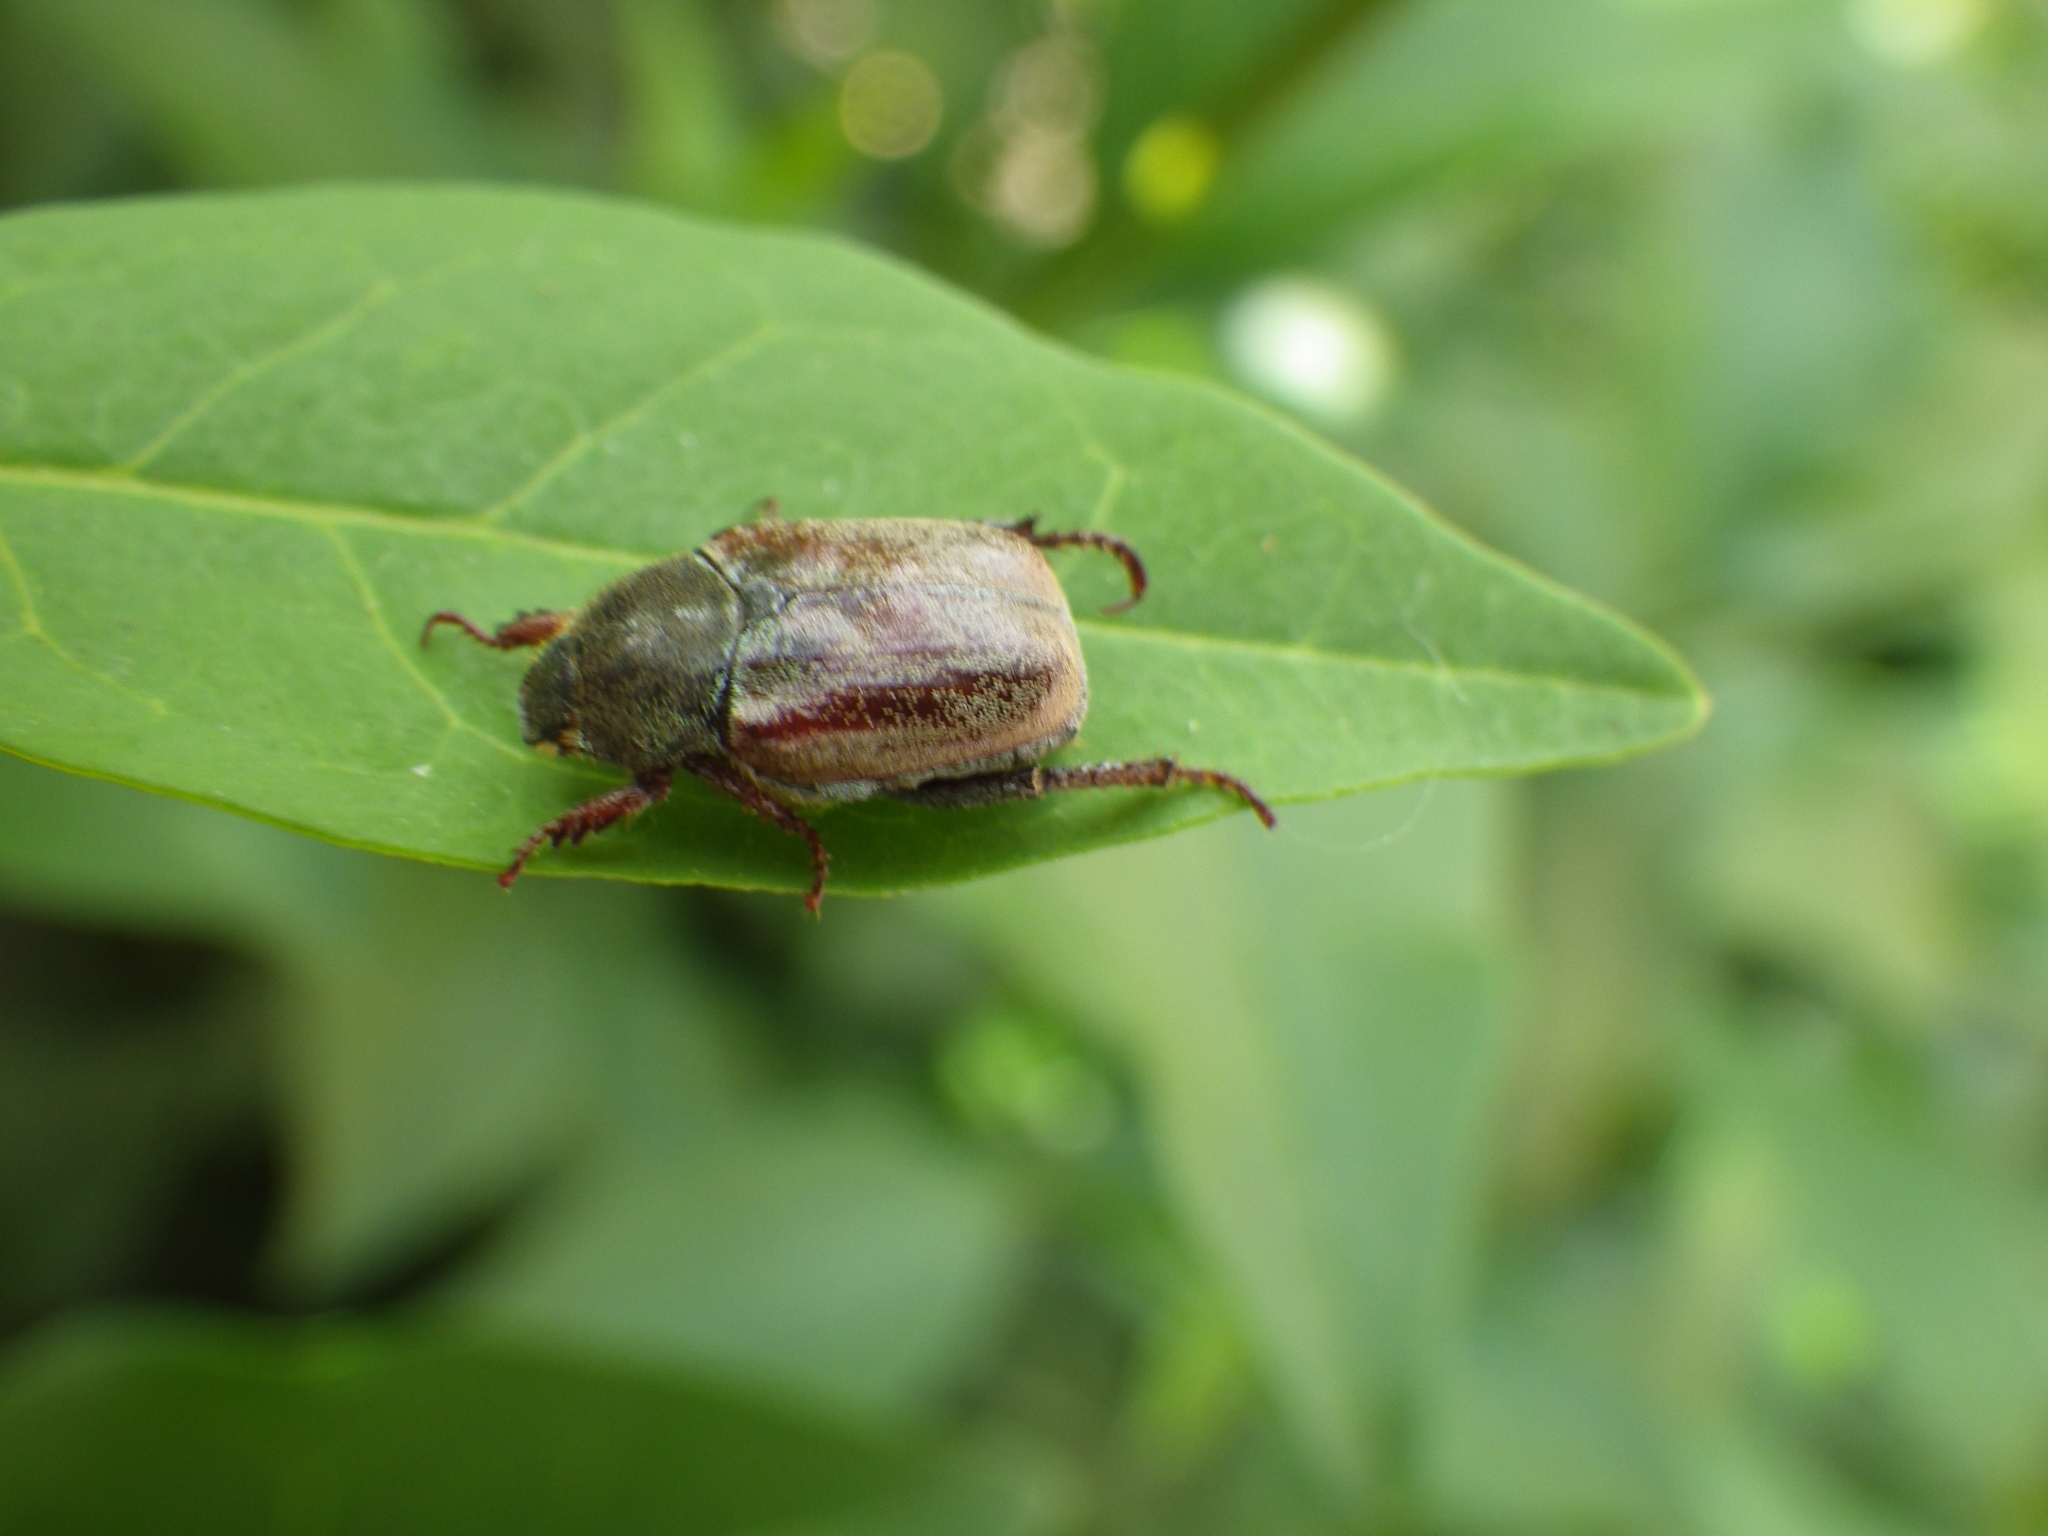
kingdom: Animalia
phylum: Arthropoda
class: Insecta
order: Coleoptera
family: Scarabaeidae
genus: Hoplia
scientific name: Hoplia philanthus
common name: Welsh chafer
